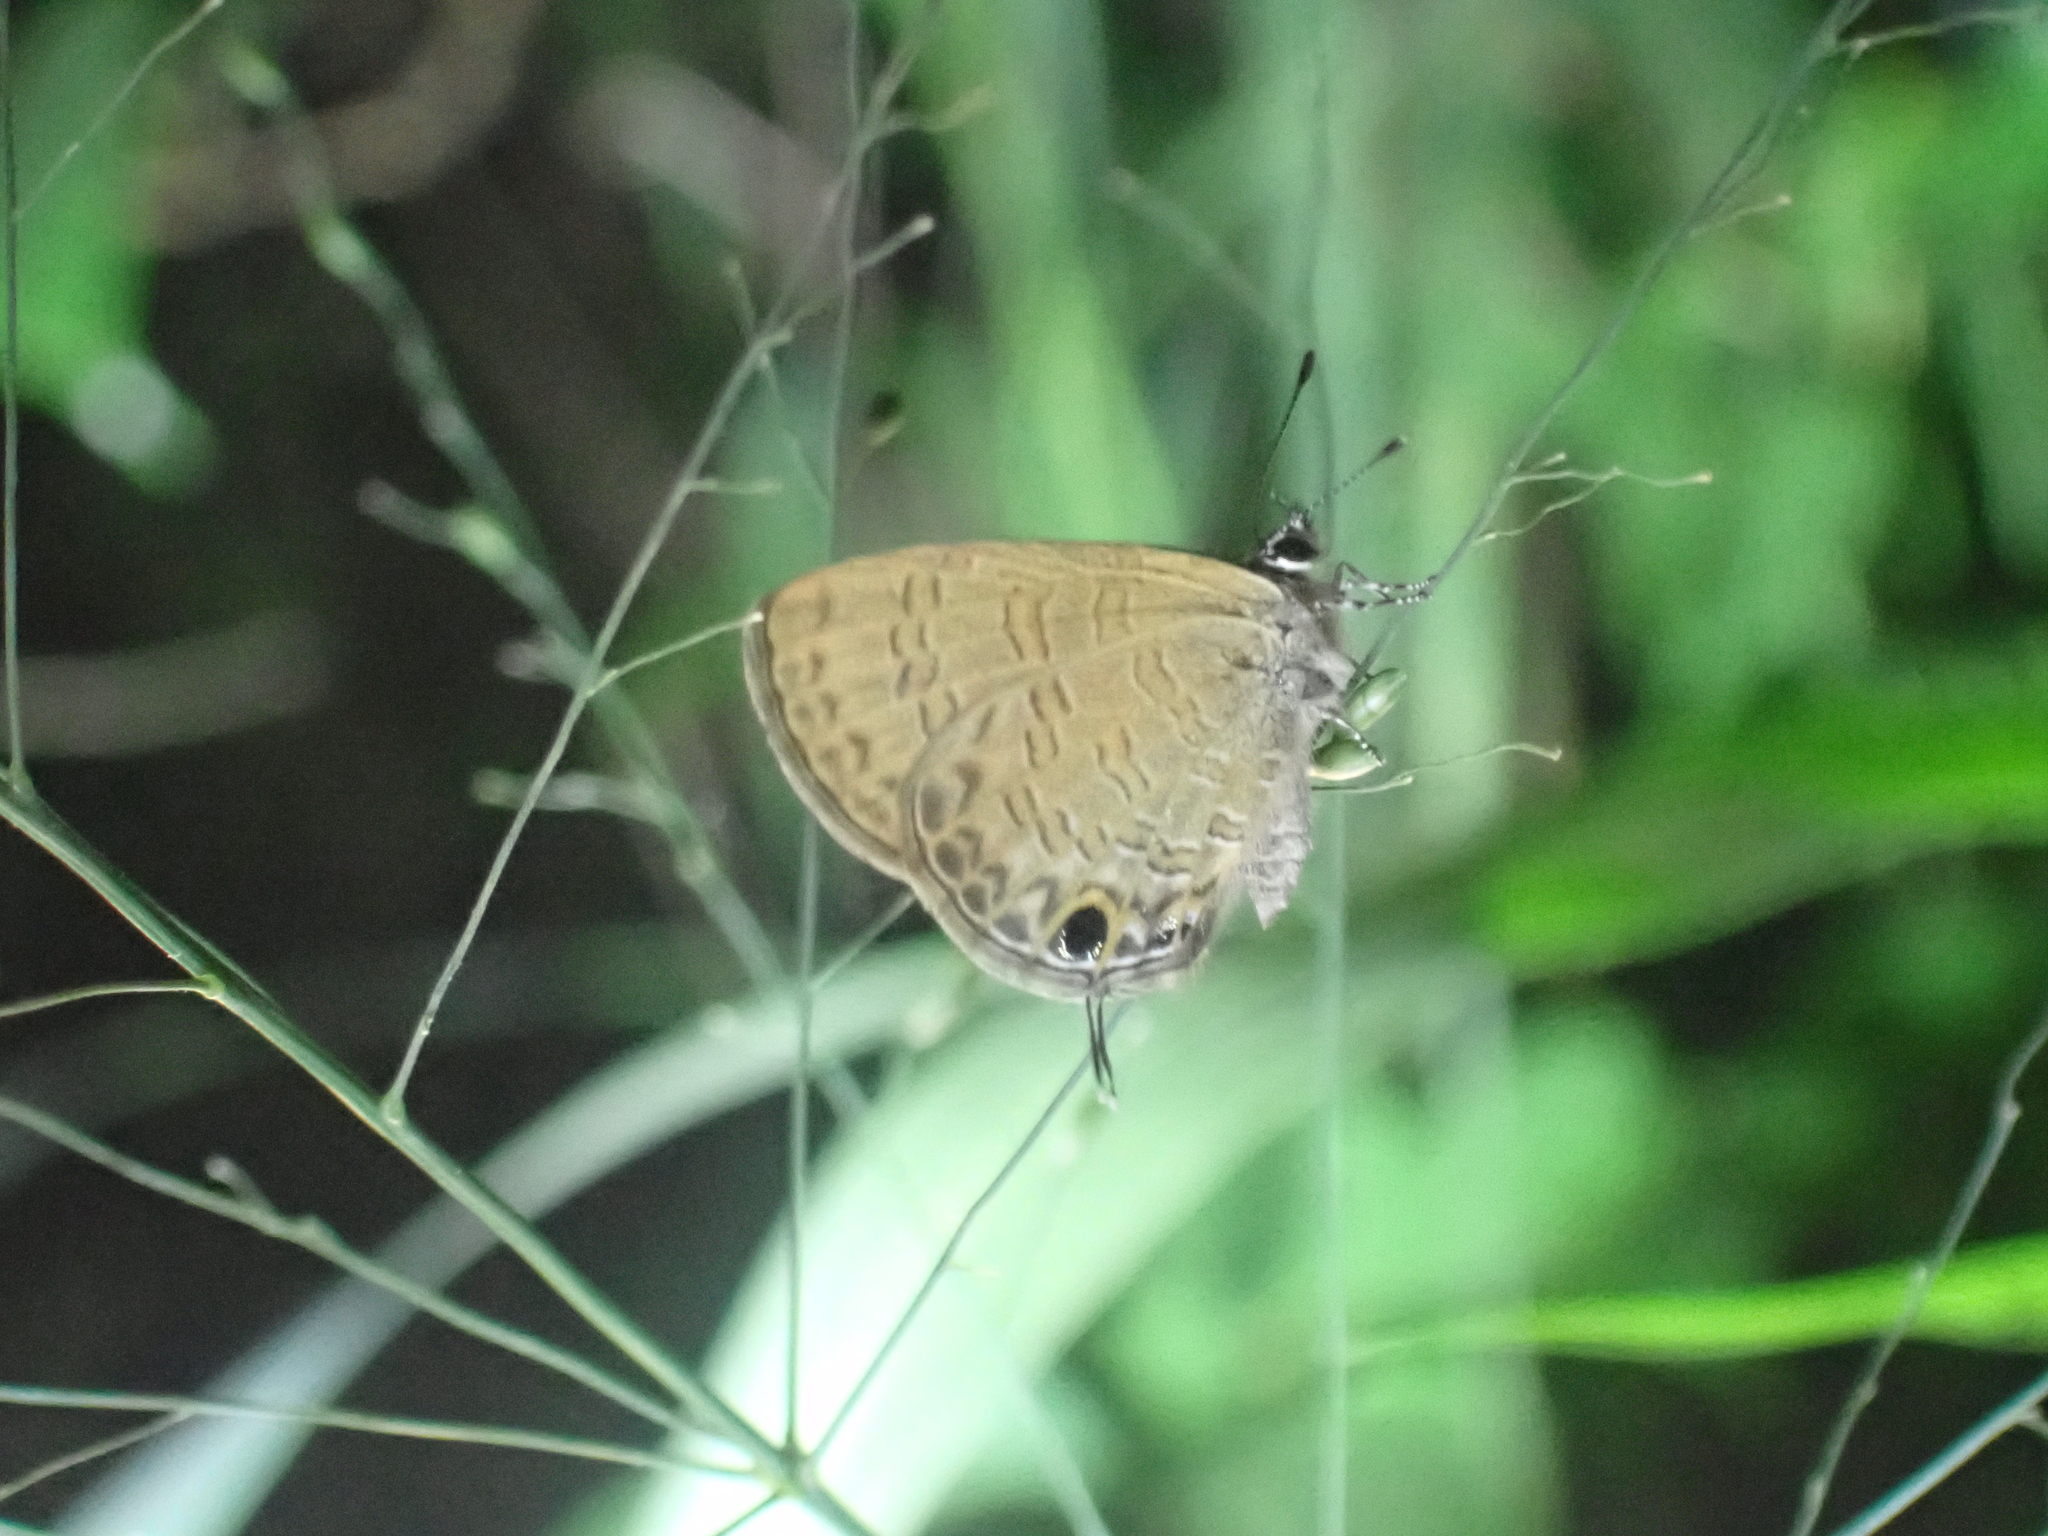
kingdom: Animalia
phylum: Arthropoda
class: Insecta
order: Lepidoptera
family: Lycaenidae
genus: Prosotas
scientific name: Prosotas nora
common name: Common line blue
